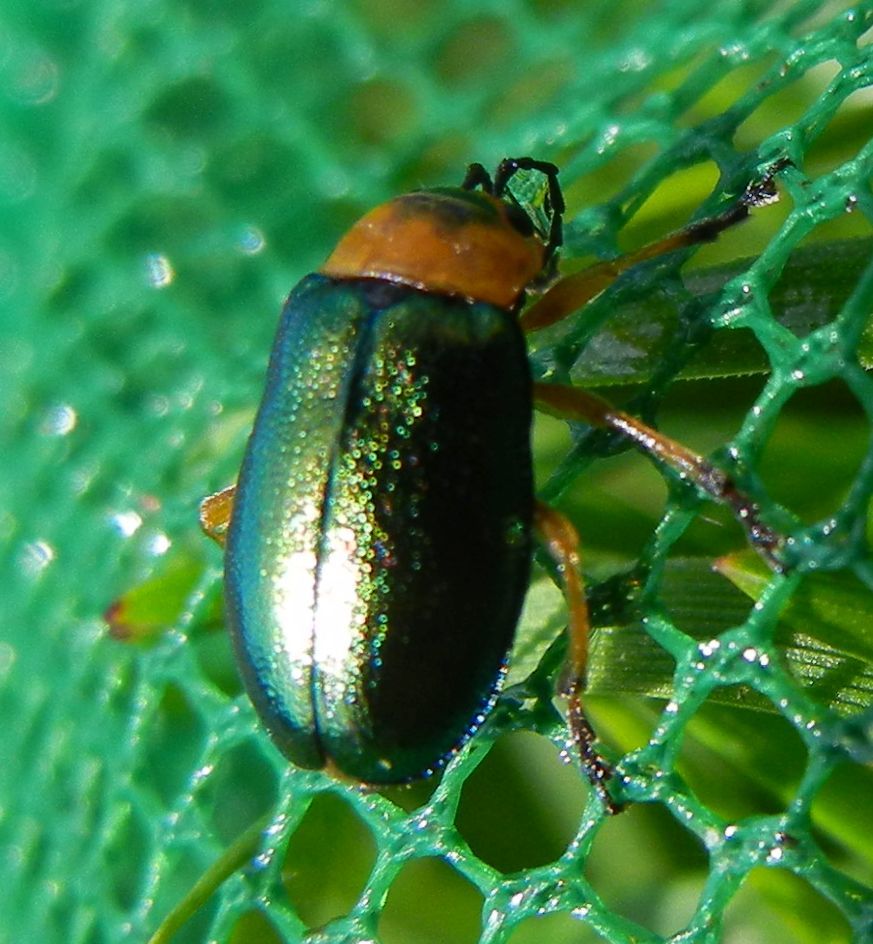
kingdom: Animalia
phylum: Arthropoda
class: Insecta
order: Coleoptera
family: Chrysomelidae
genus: Sermylassa
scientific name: Sermylassa halensis
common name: Leaf beetle
